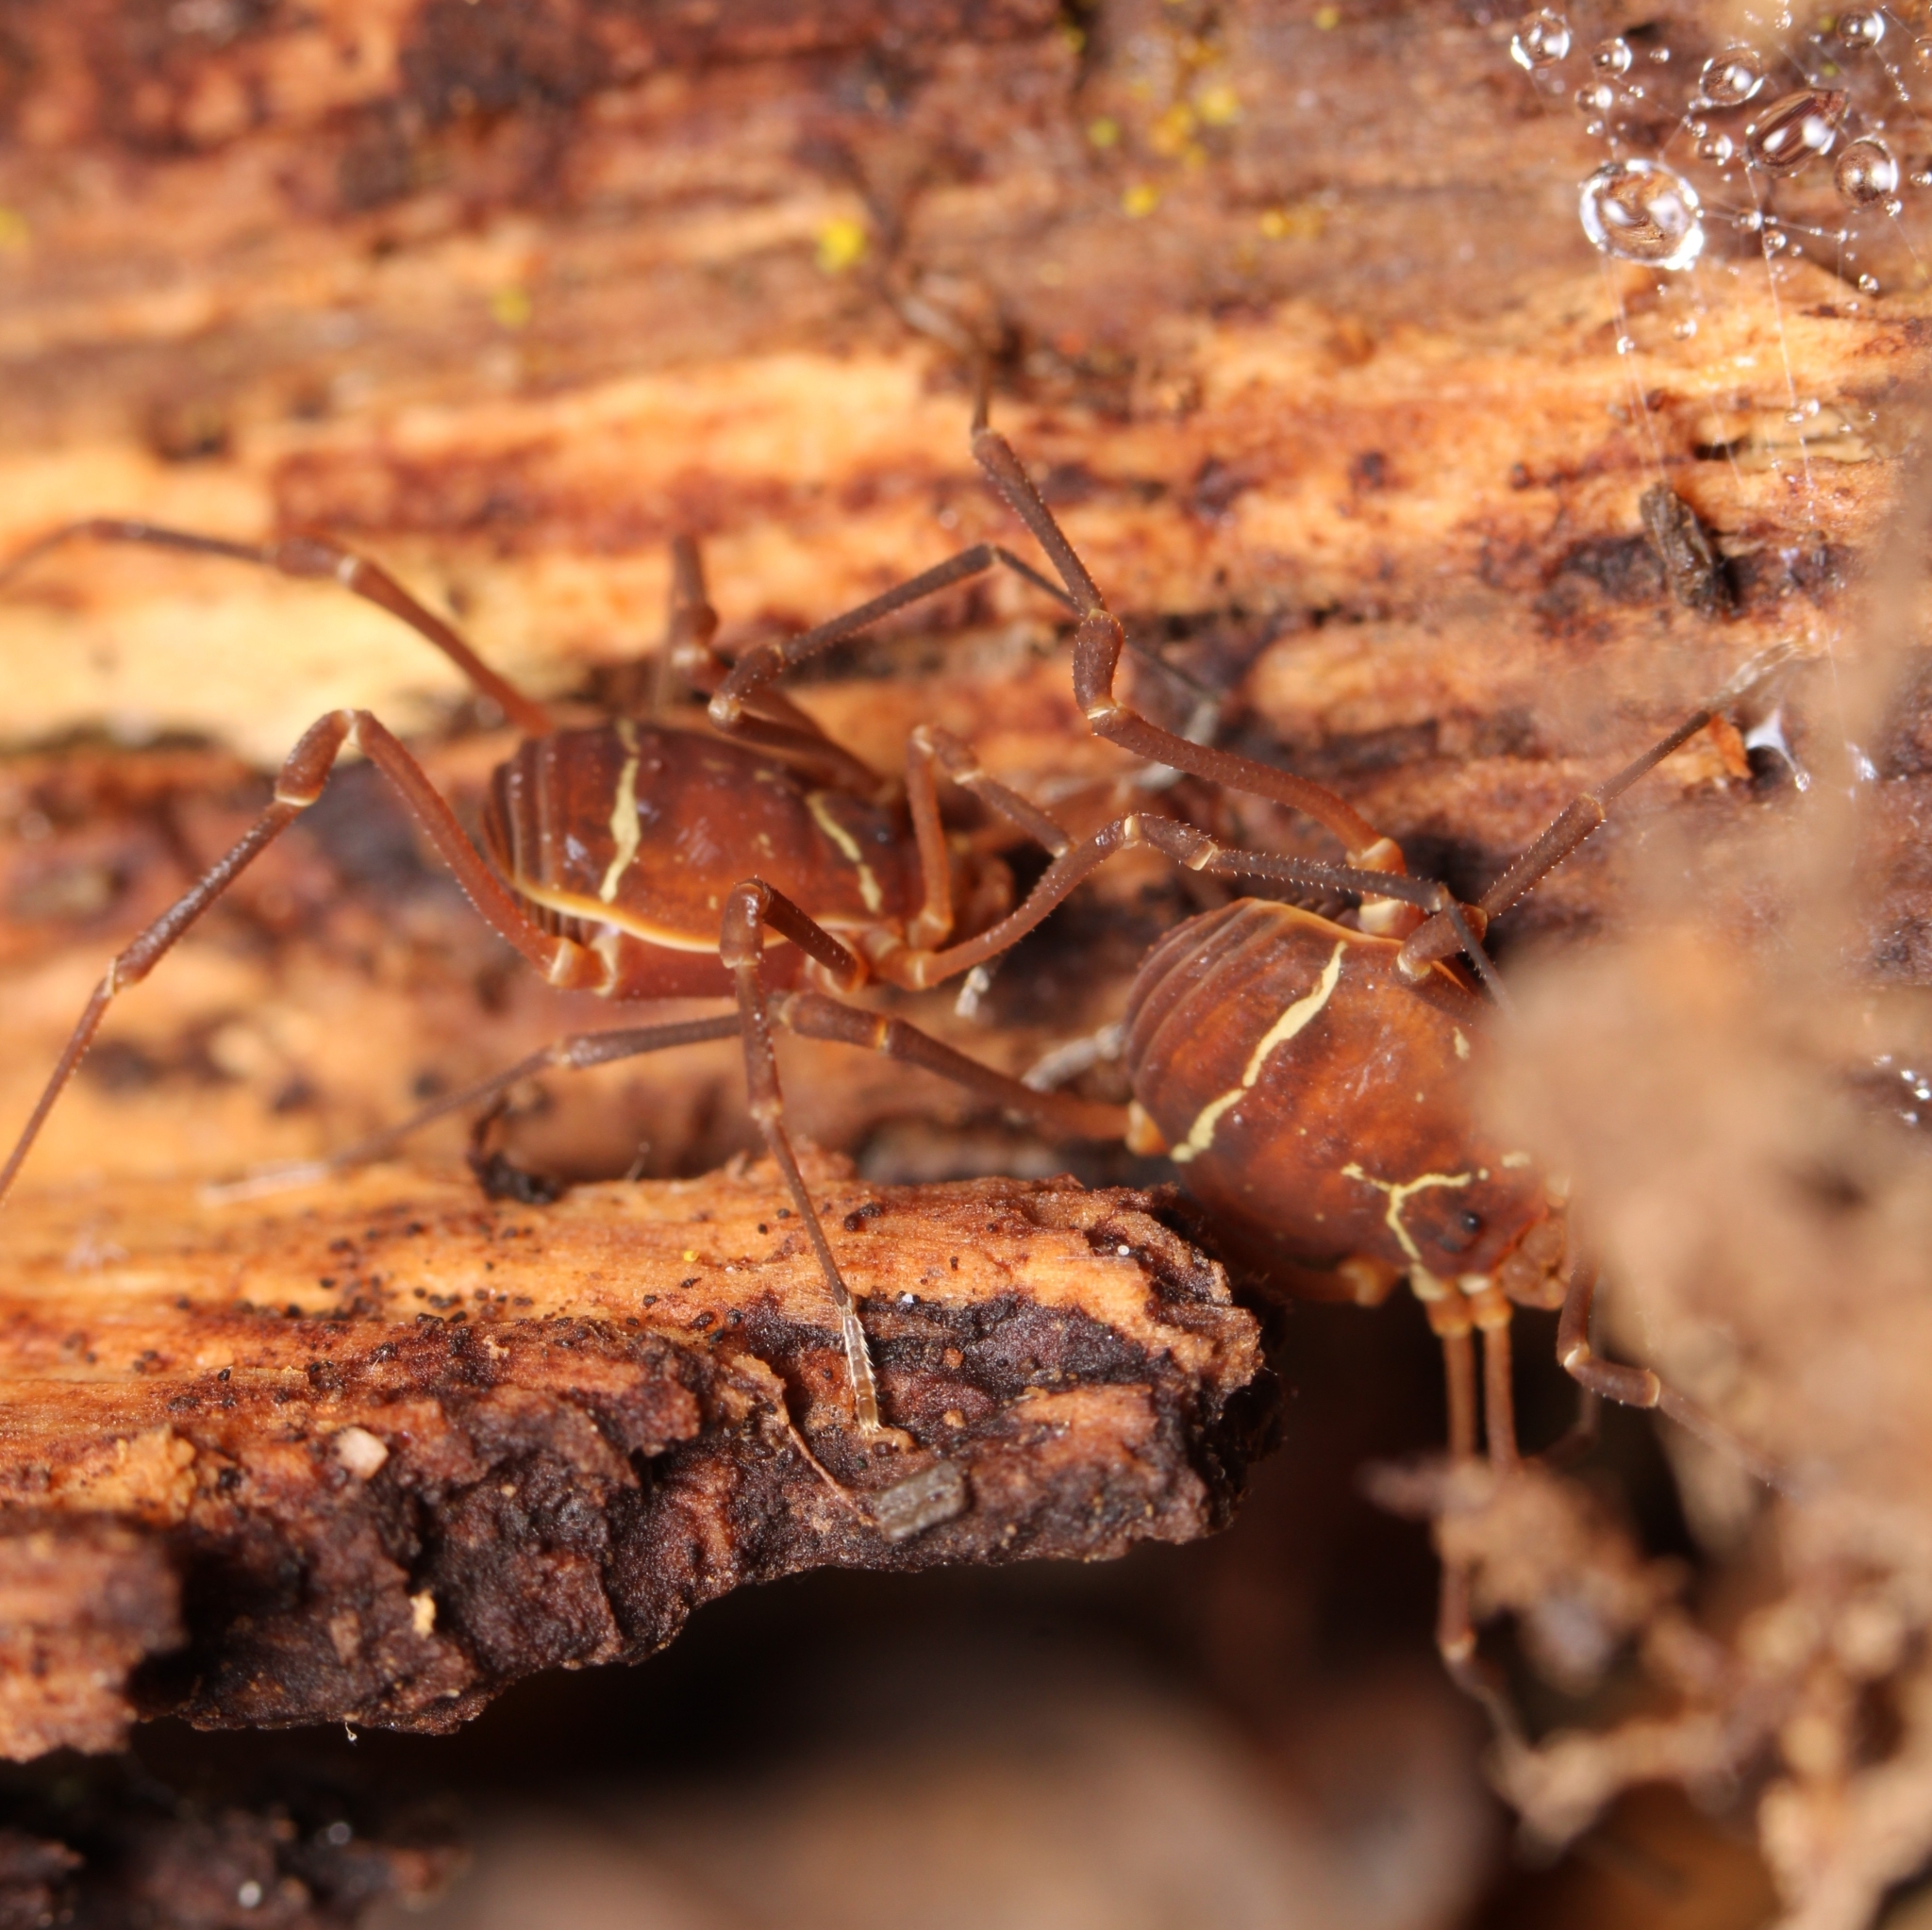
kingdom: Animalia
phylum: Arthropoda
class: Arachnida
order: Opiliones
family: Cosmetidae
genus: Libitioides
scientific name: Libitioides sayi
